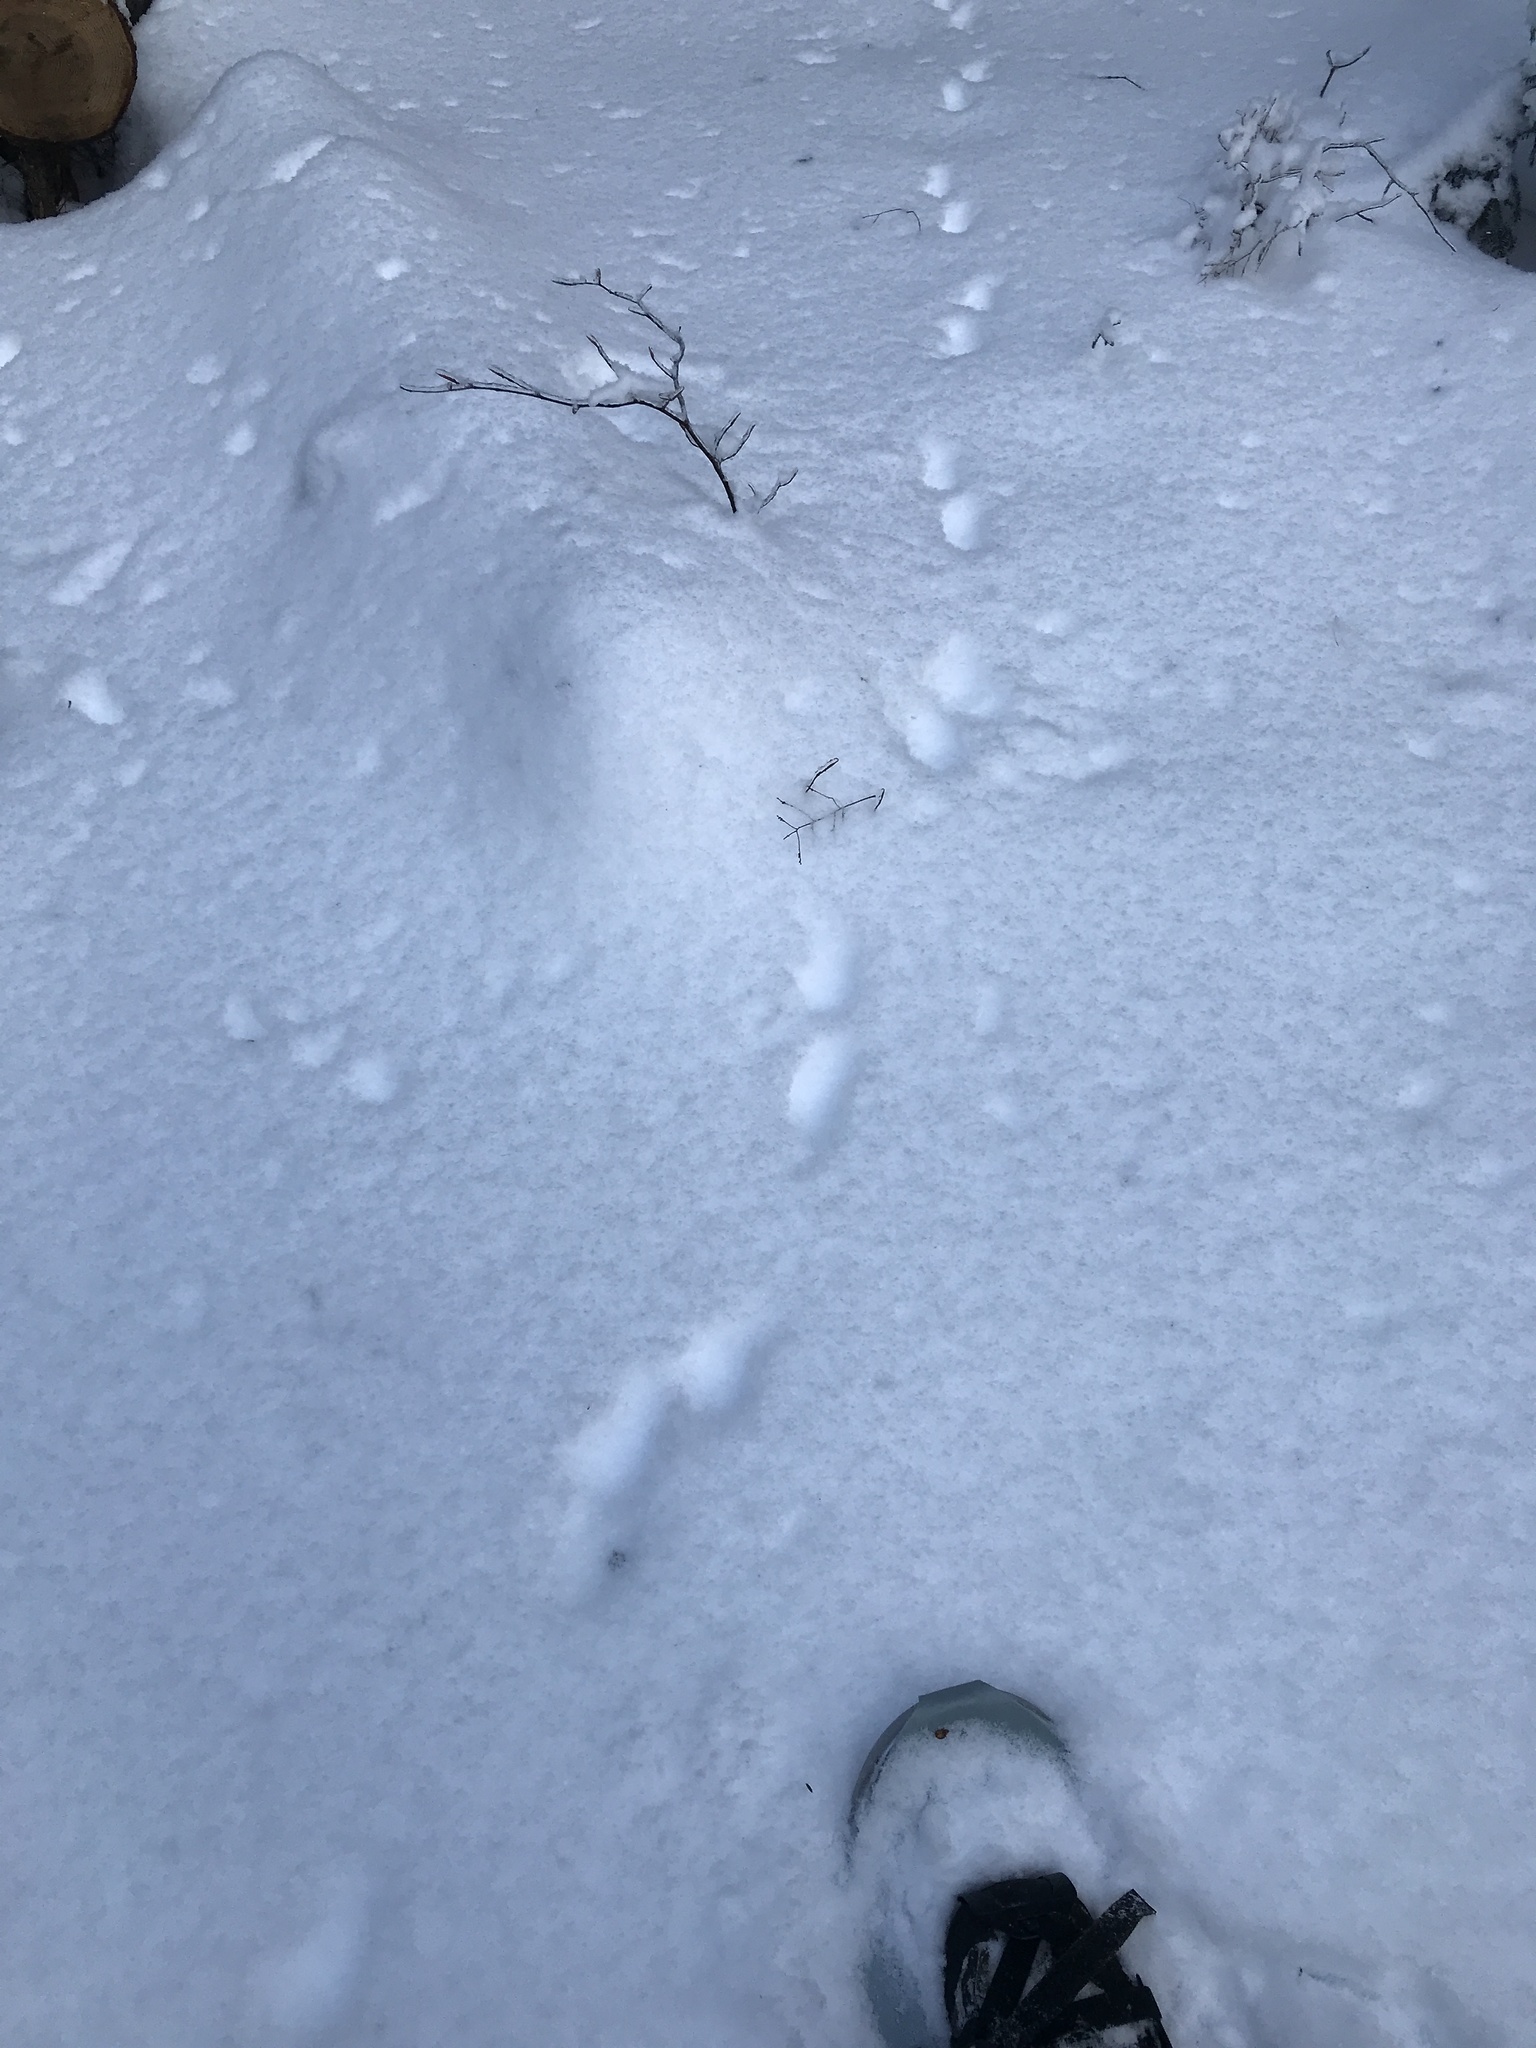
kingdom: Animalia
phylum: Chordata
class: Mammalia
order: Carnivora
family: Mustelidae
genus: Pekania
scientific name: Pekania pennanti
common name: Fisher
